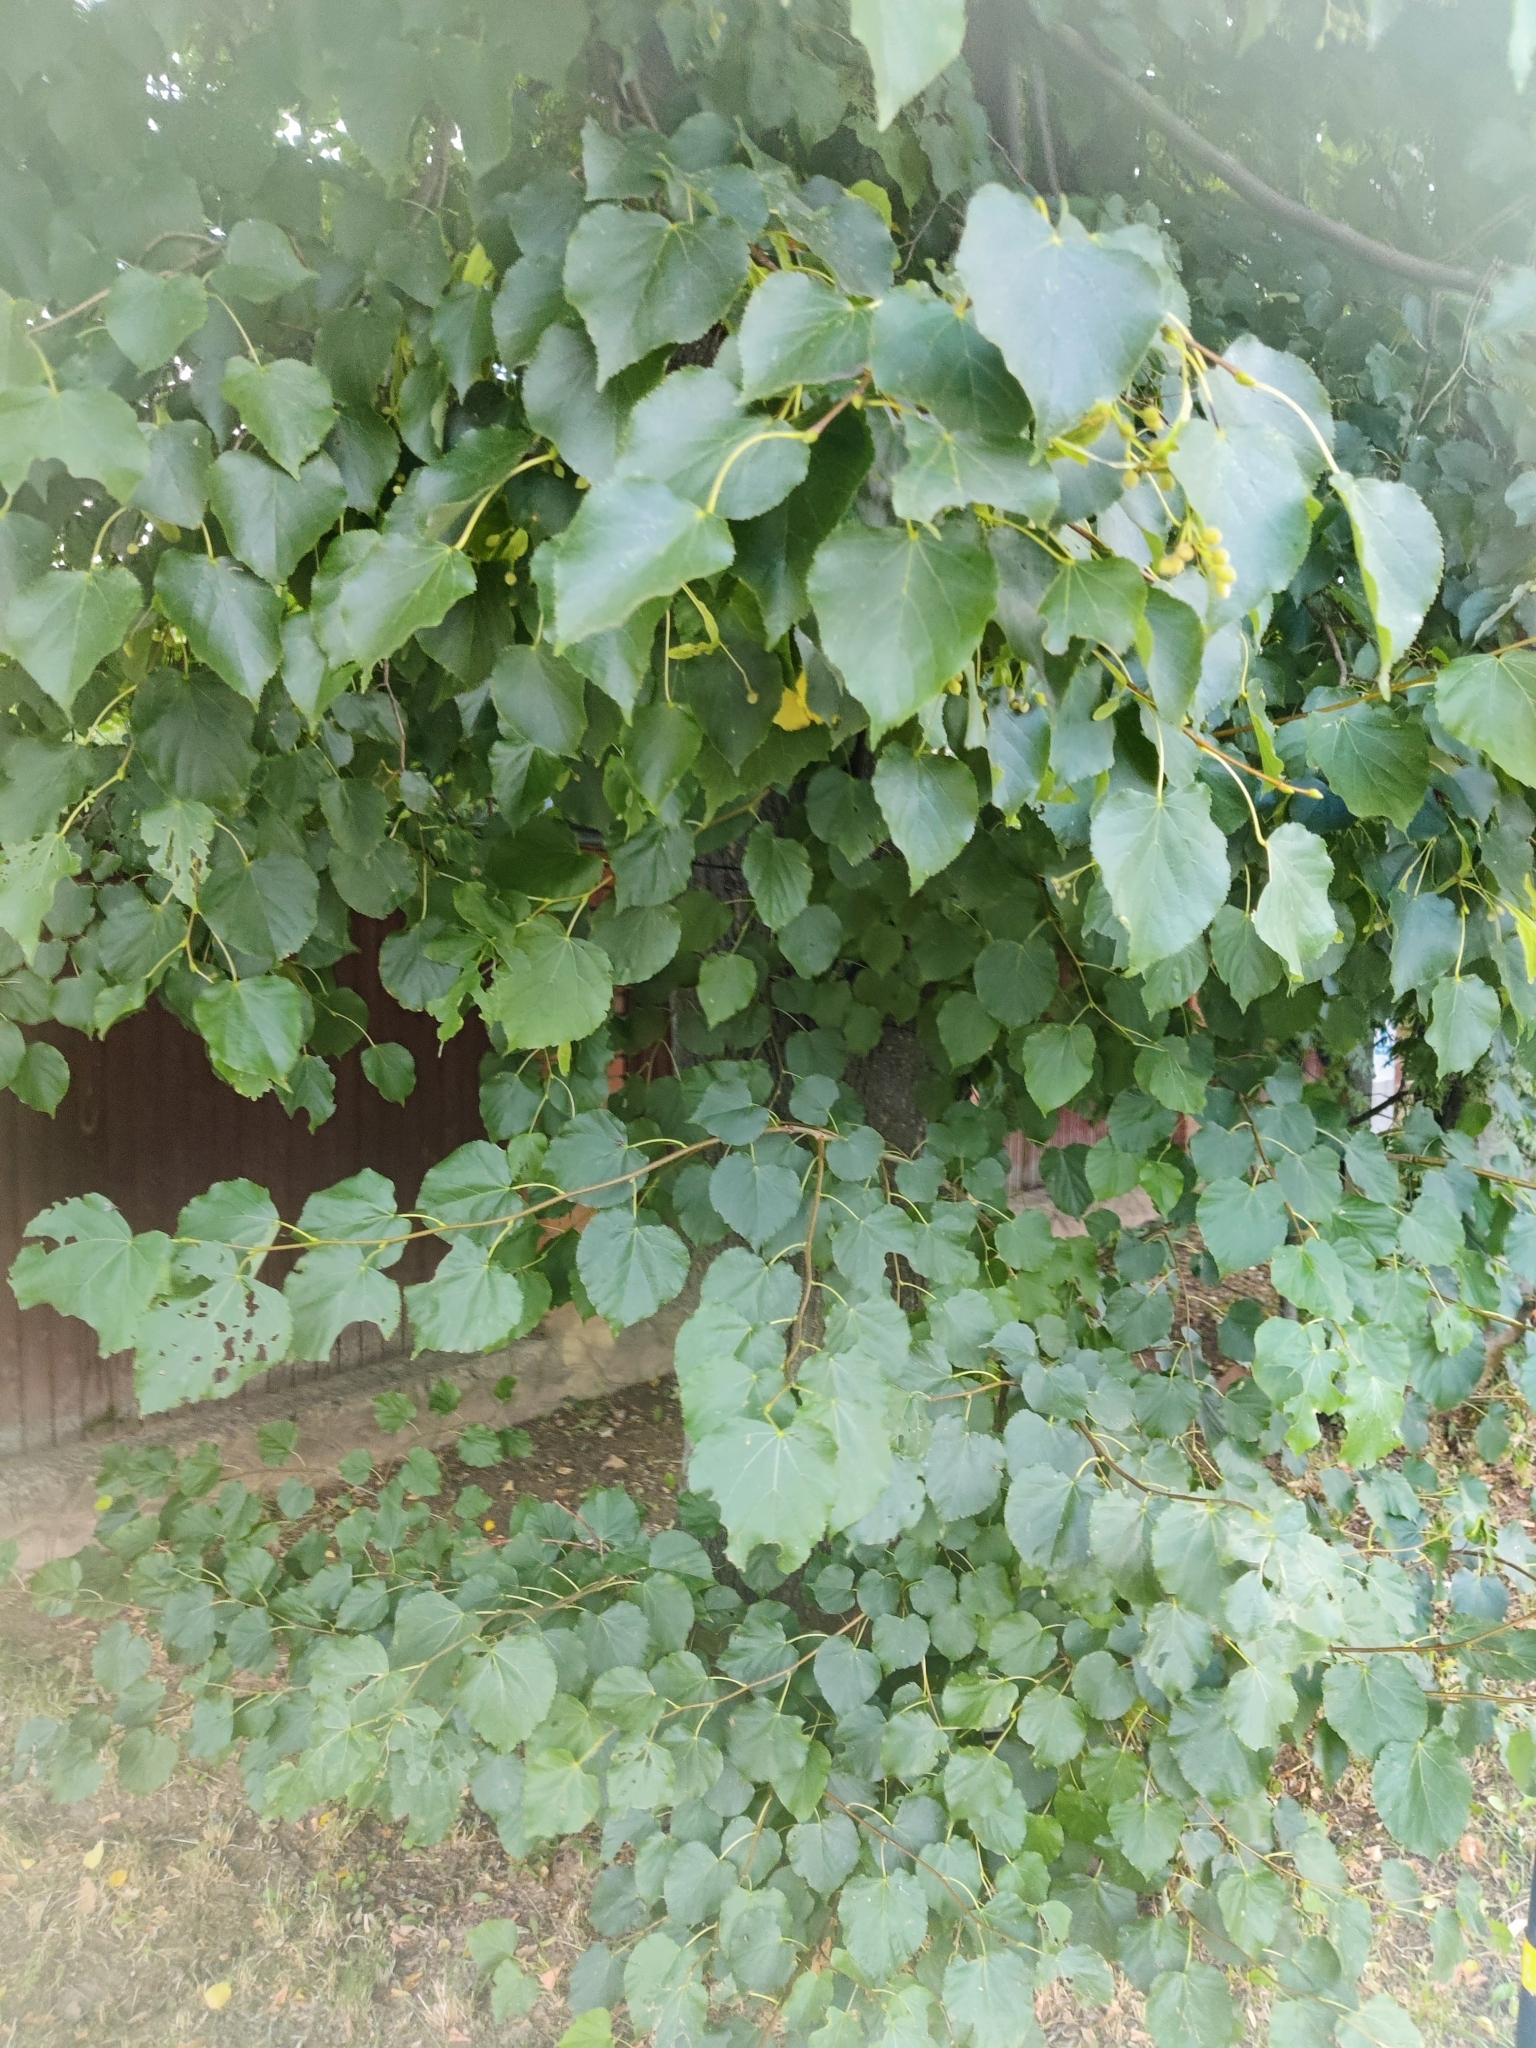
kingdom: Plantae
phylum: Tracheophyta
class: Magnoliopsida
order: Malvales
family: Malvaceae
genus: Tilia
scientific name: Tilia cordata
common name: Small-leaved lime
